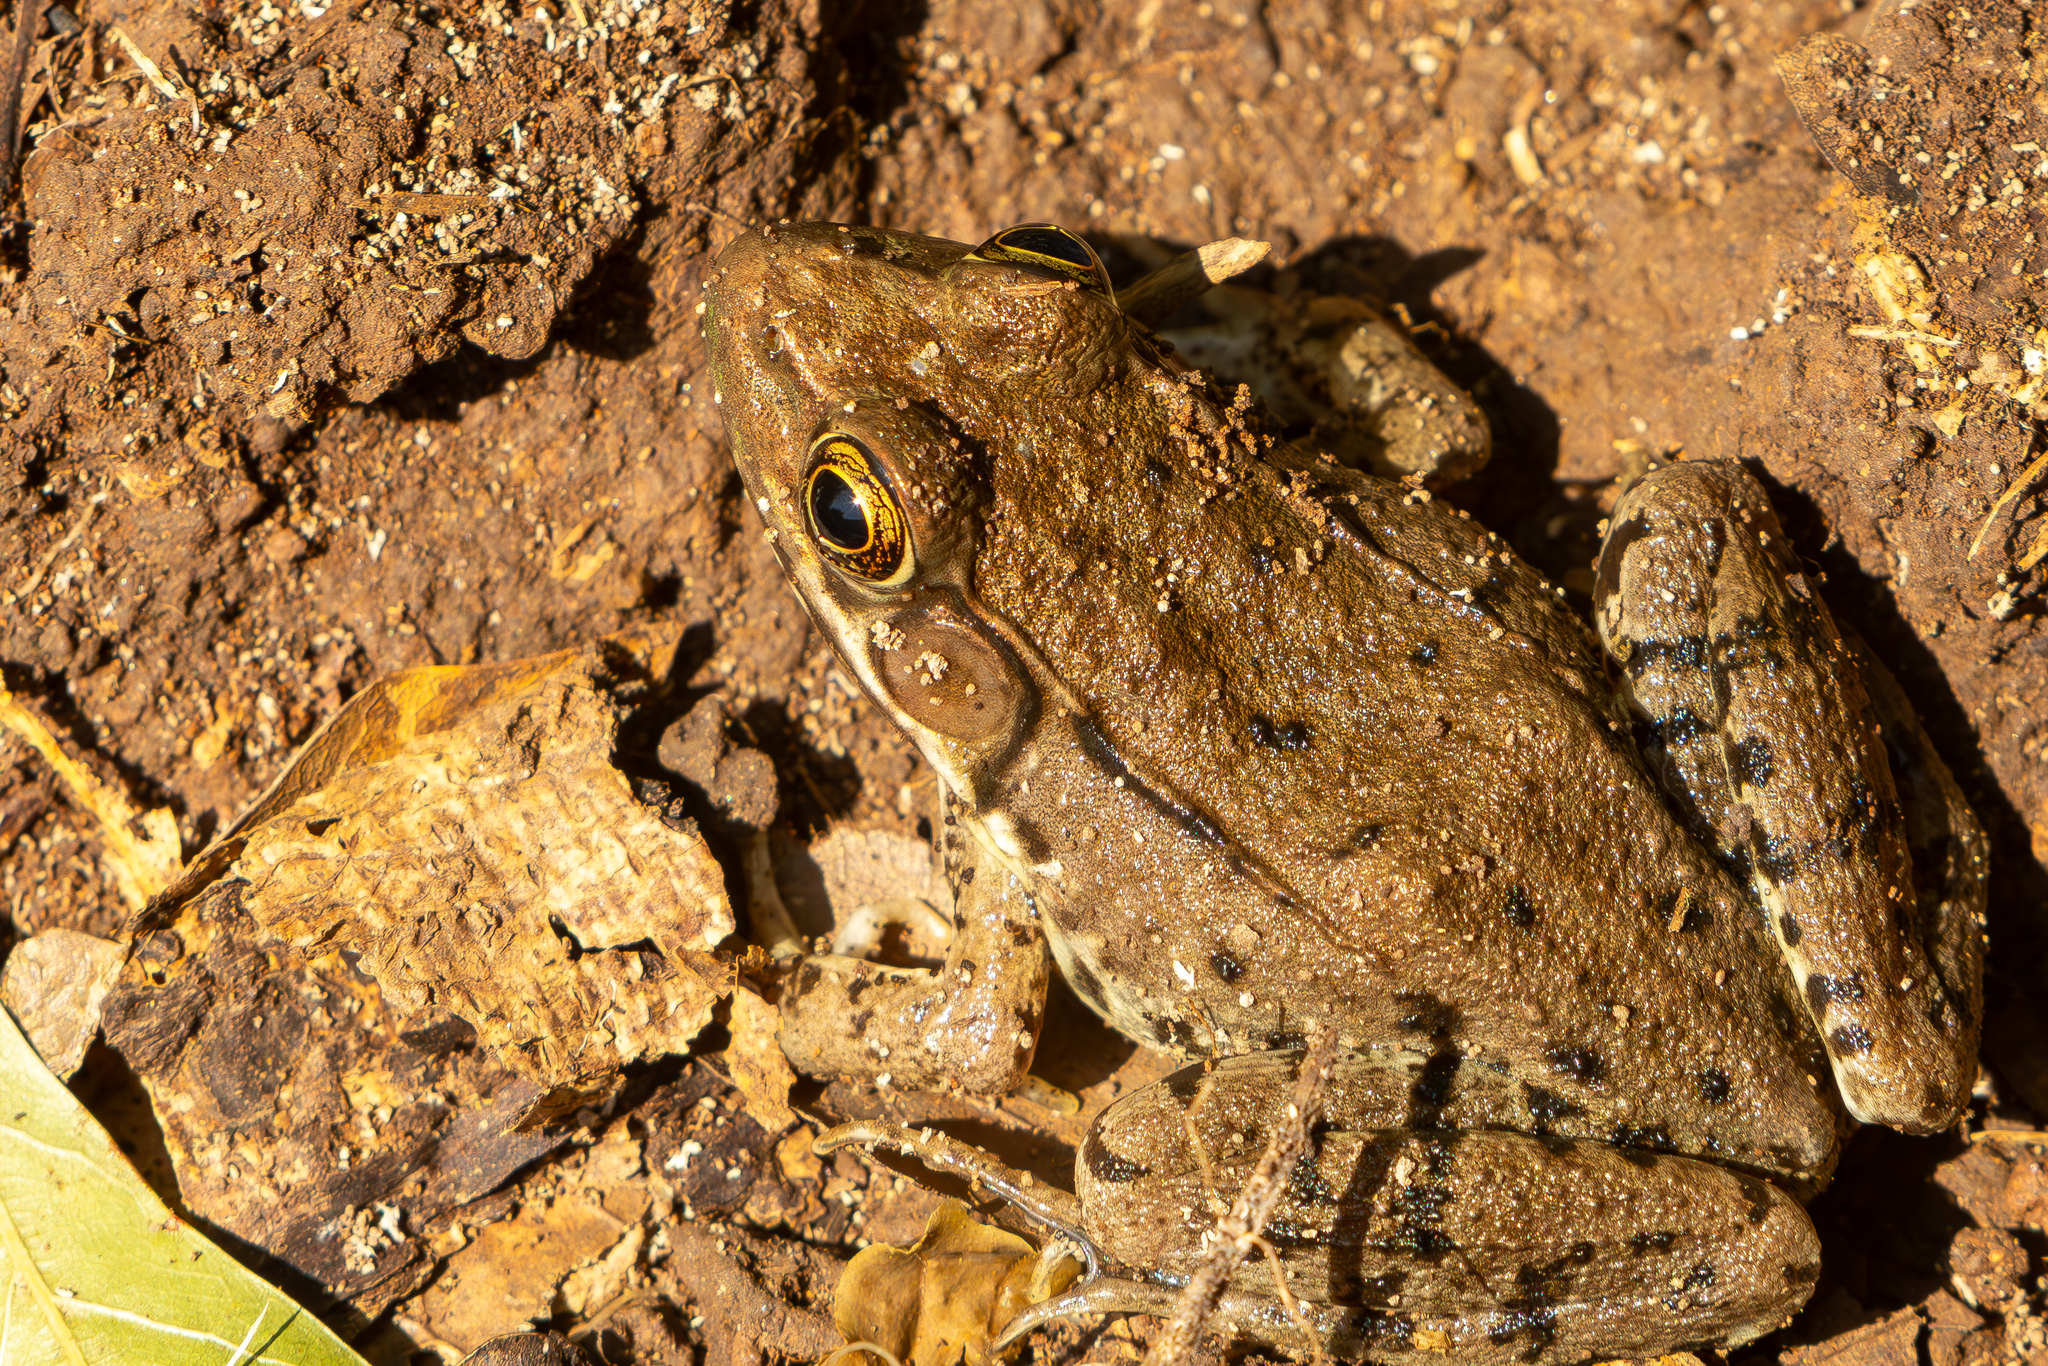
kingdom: Animalia
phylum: Chordata
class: Amphibia
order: Anura
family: Ranidae
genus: Lithobates
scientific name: Lithobates clamitans
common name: Green frog
